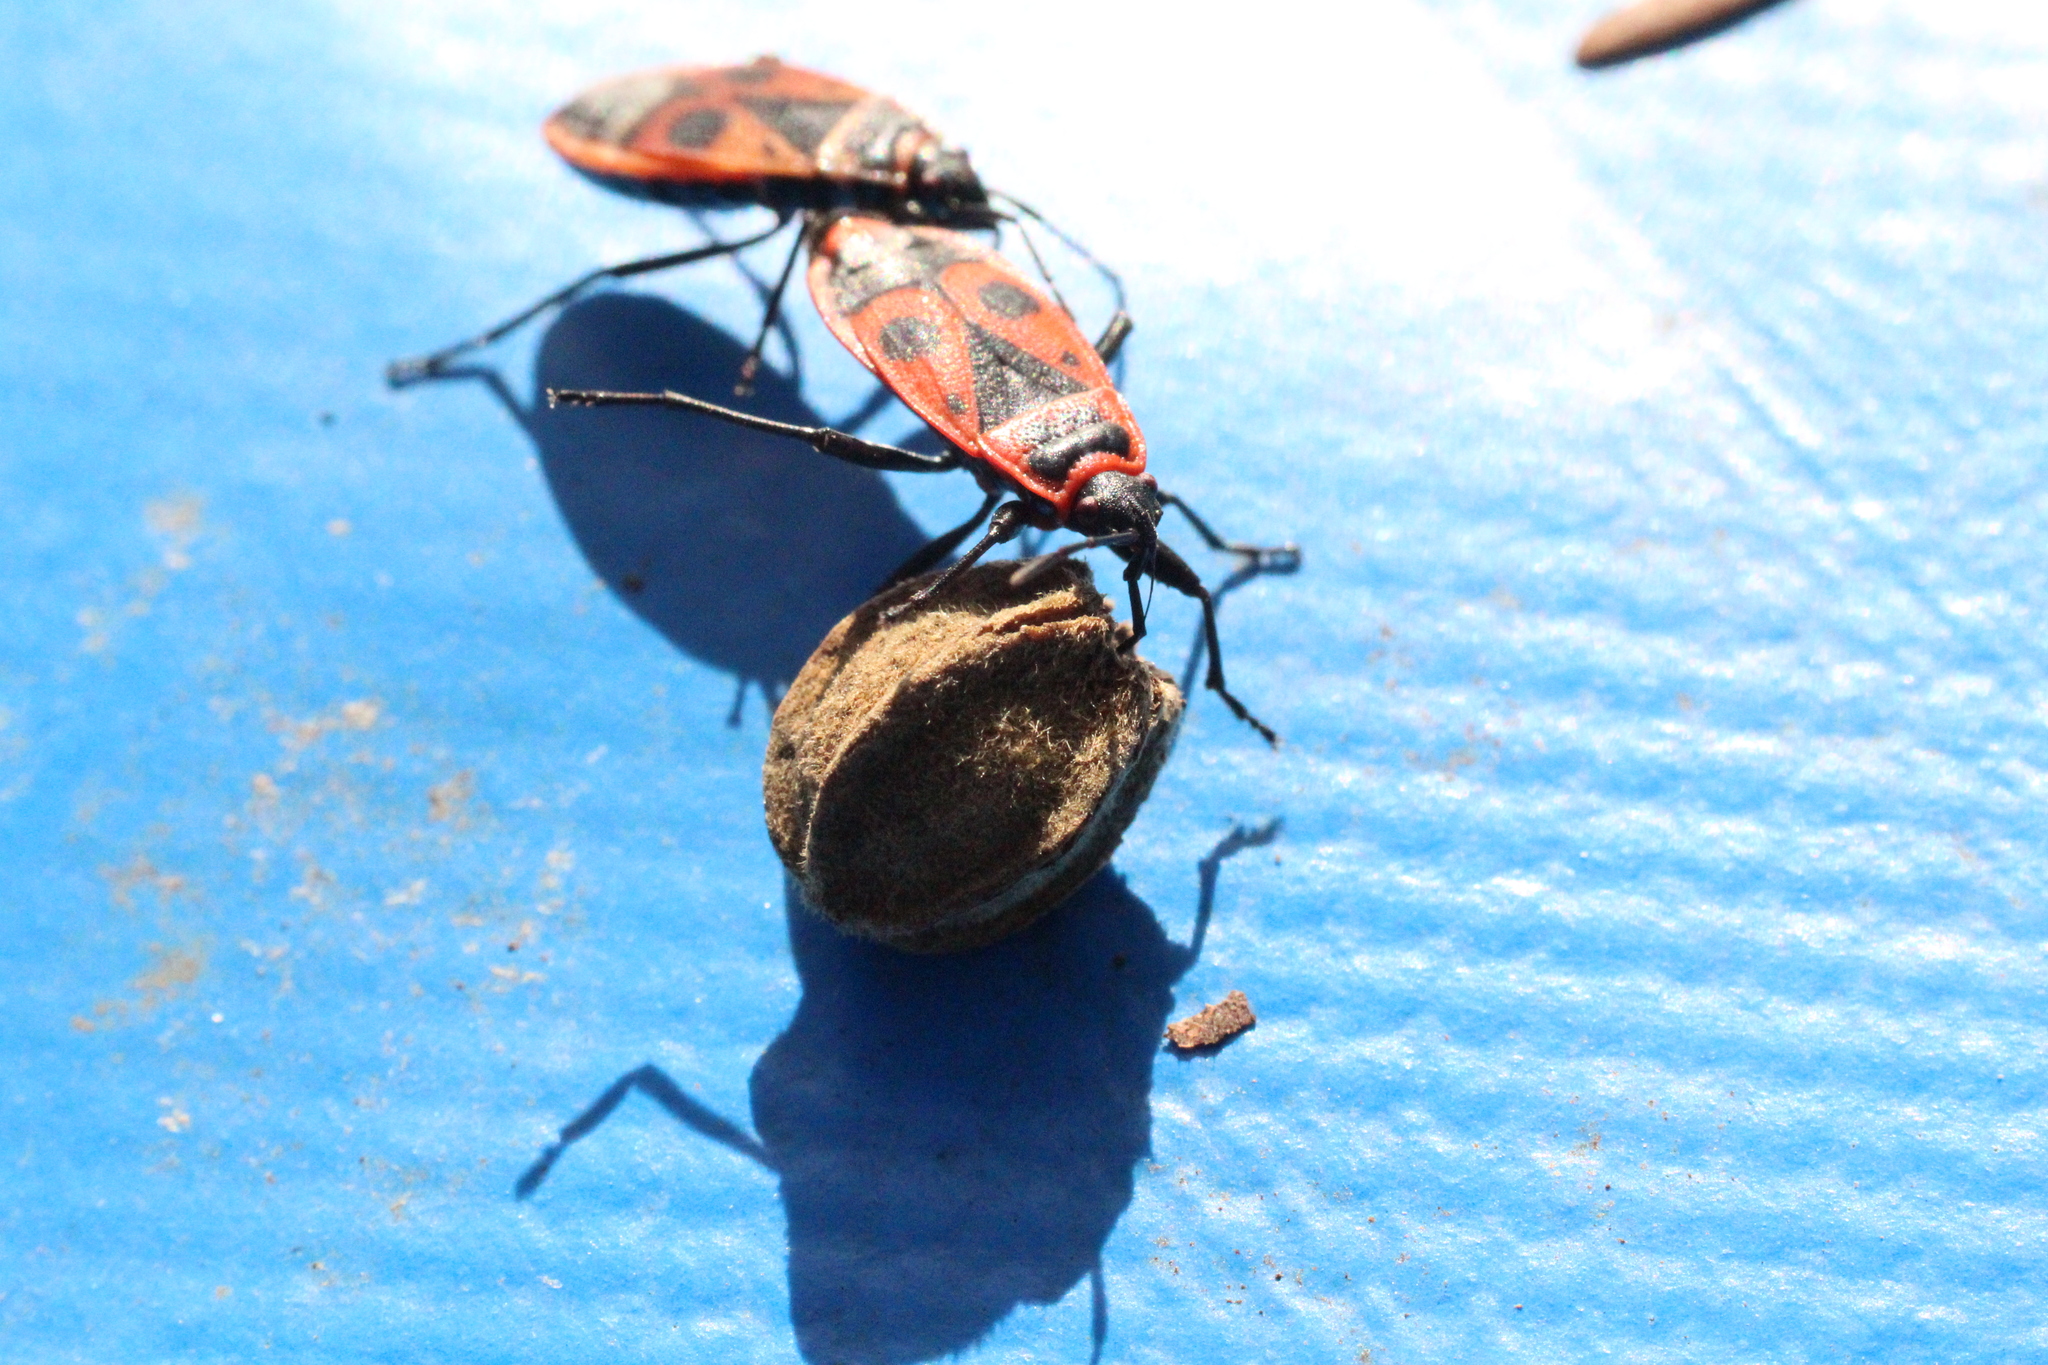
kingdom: Animalia
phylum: Arthropoda
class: Insecta
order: Hemiptera
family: Pyrrhocoridae
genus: Pyrrhocoris
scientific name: Pyrrhocoris apterus
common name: Firebug
